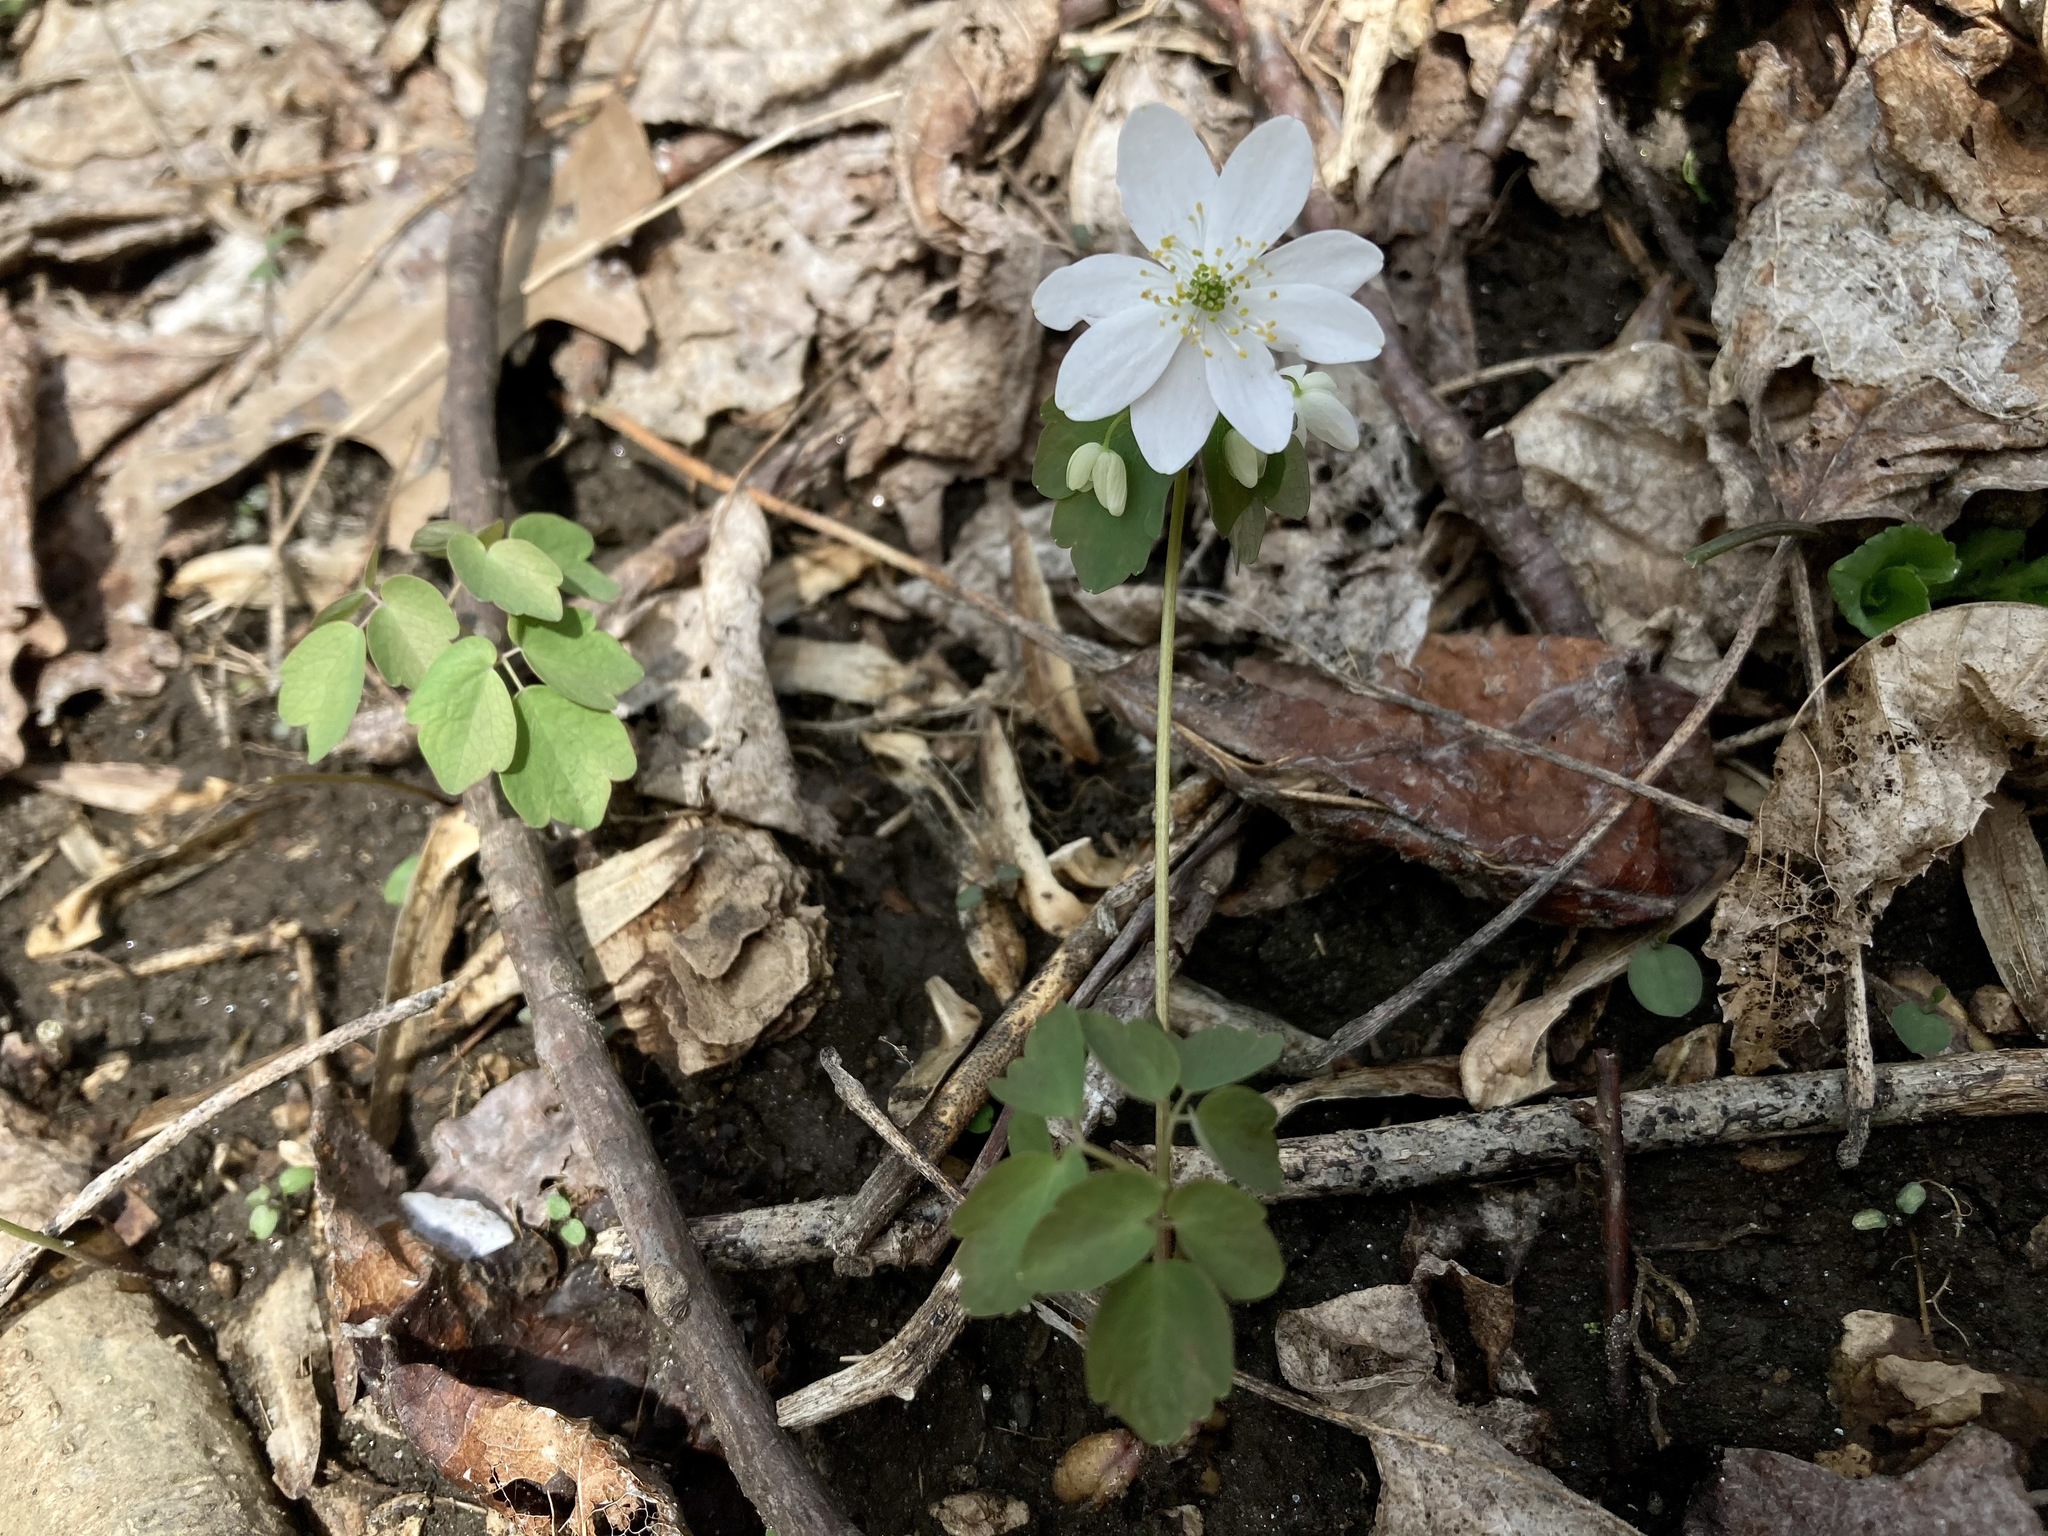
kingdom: Plantae
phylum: Tracheophyta
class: Magnoliopsida
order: Ranunculales
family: Ranunculaceae
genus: Thalictrum
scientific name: Thalictrum thalictroides
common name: Rue-anemone
